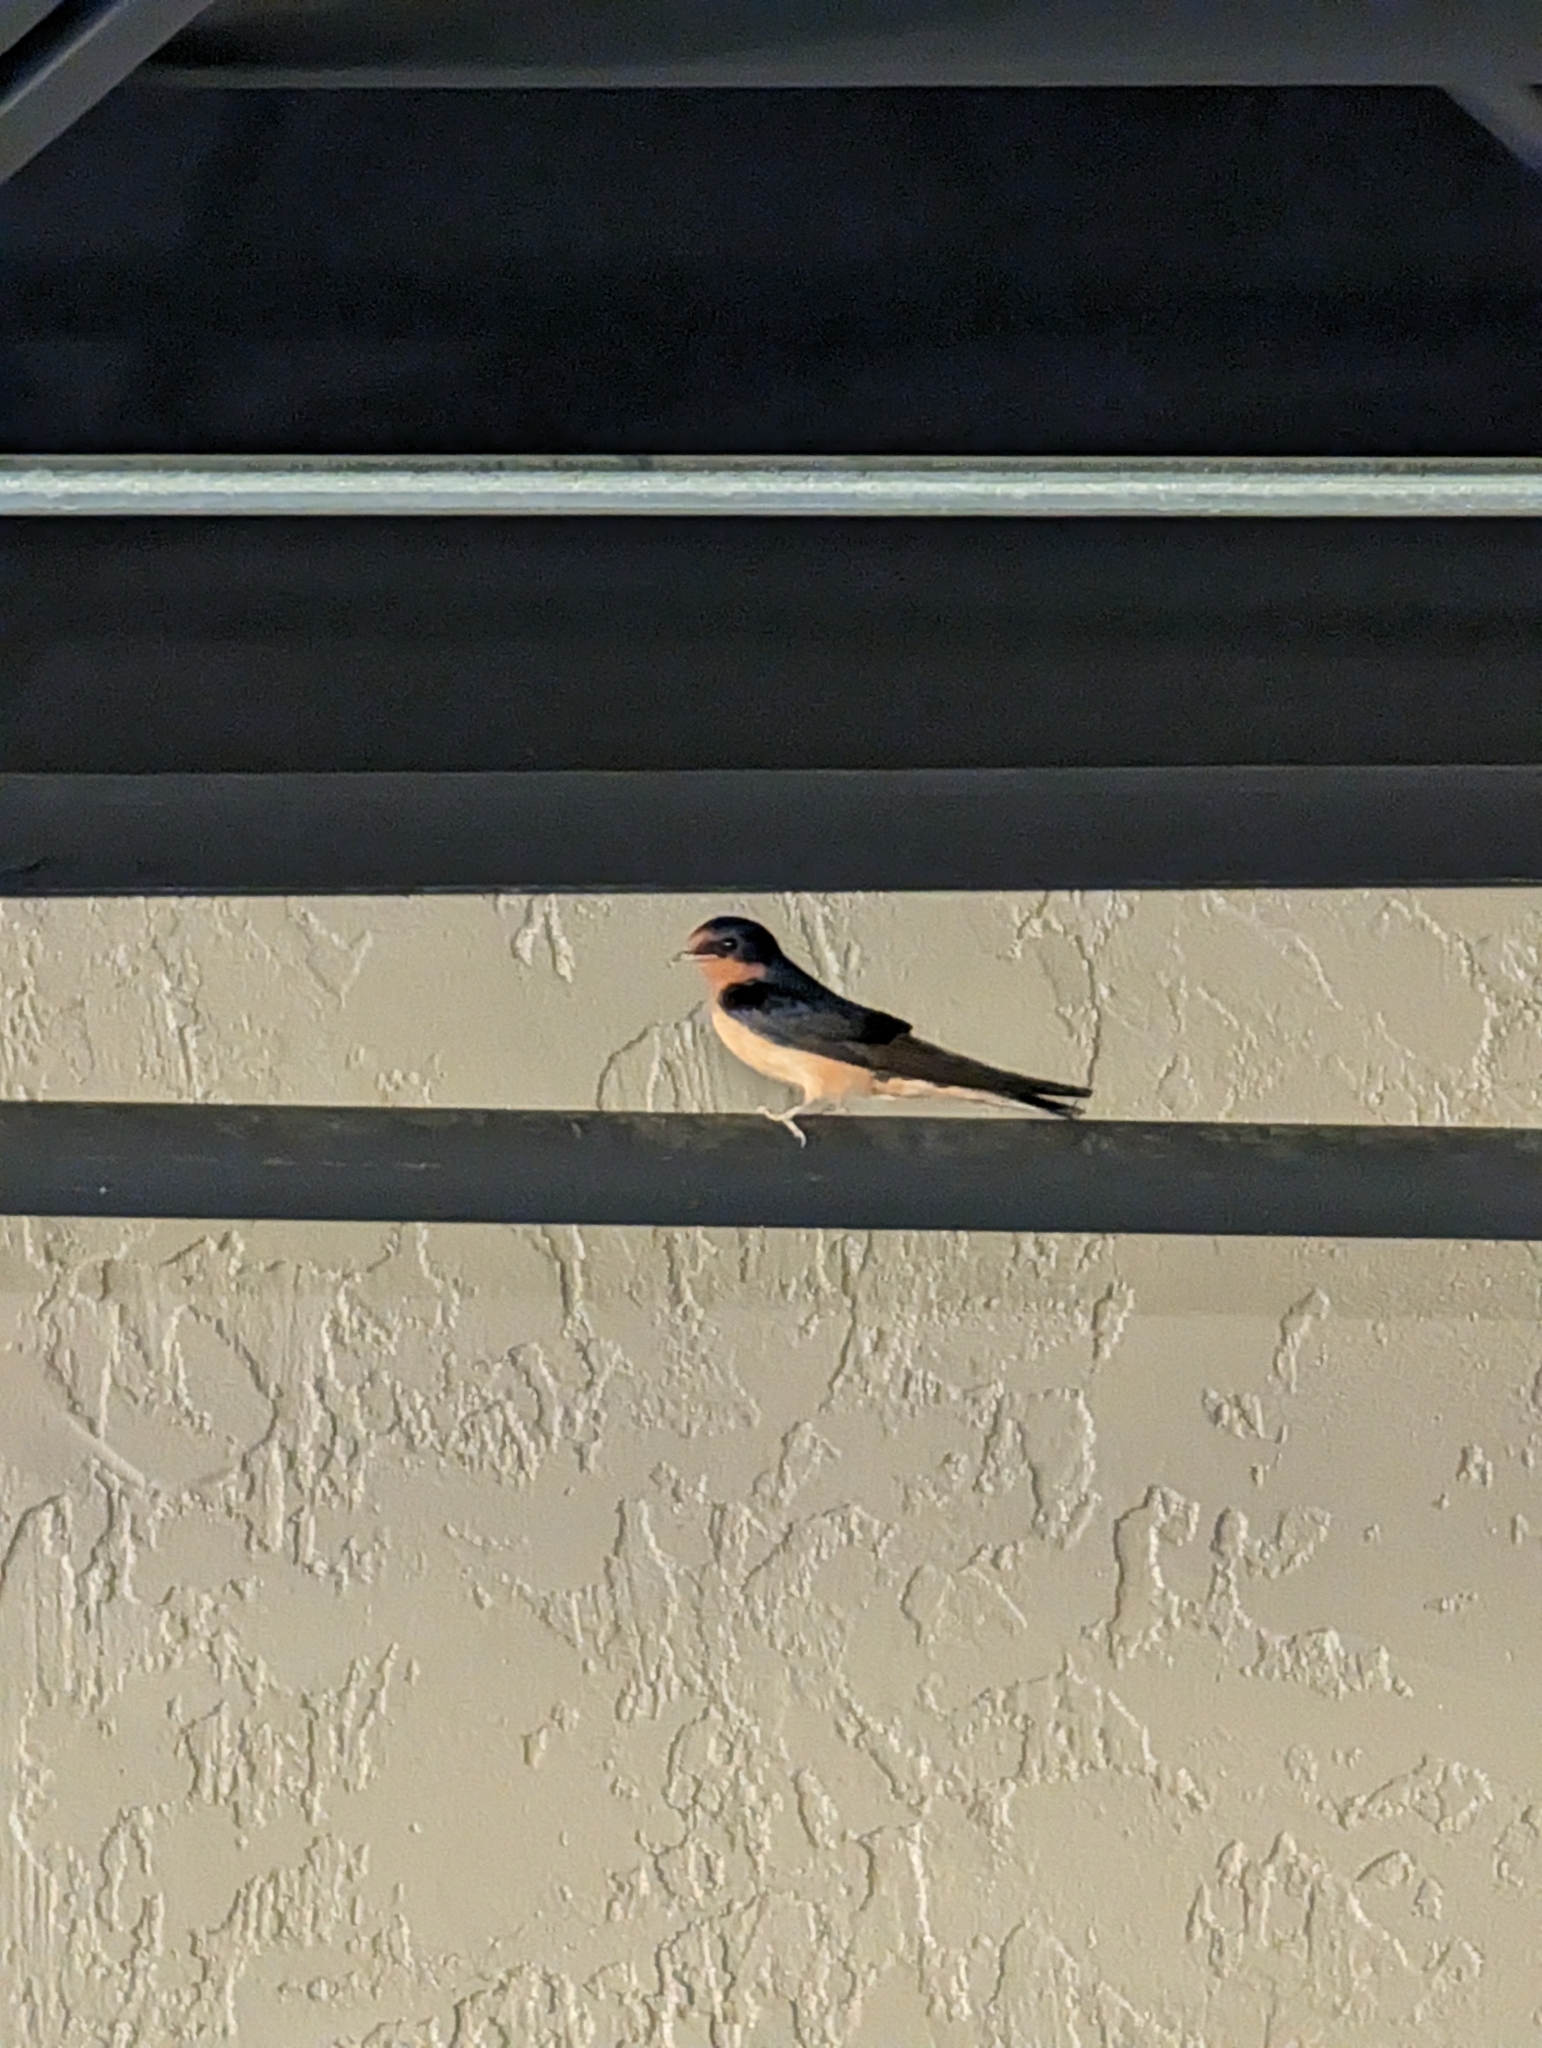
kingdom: Animalia
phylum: Chordata
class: Aves
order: Passeriformes
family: Hirundinidae
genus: Hirundo
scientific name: Hirundo rustica
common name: Barn swallow
